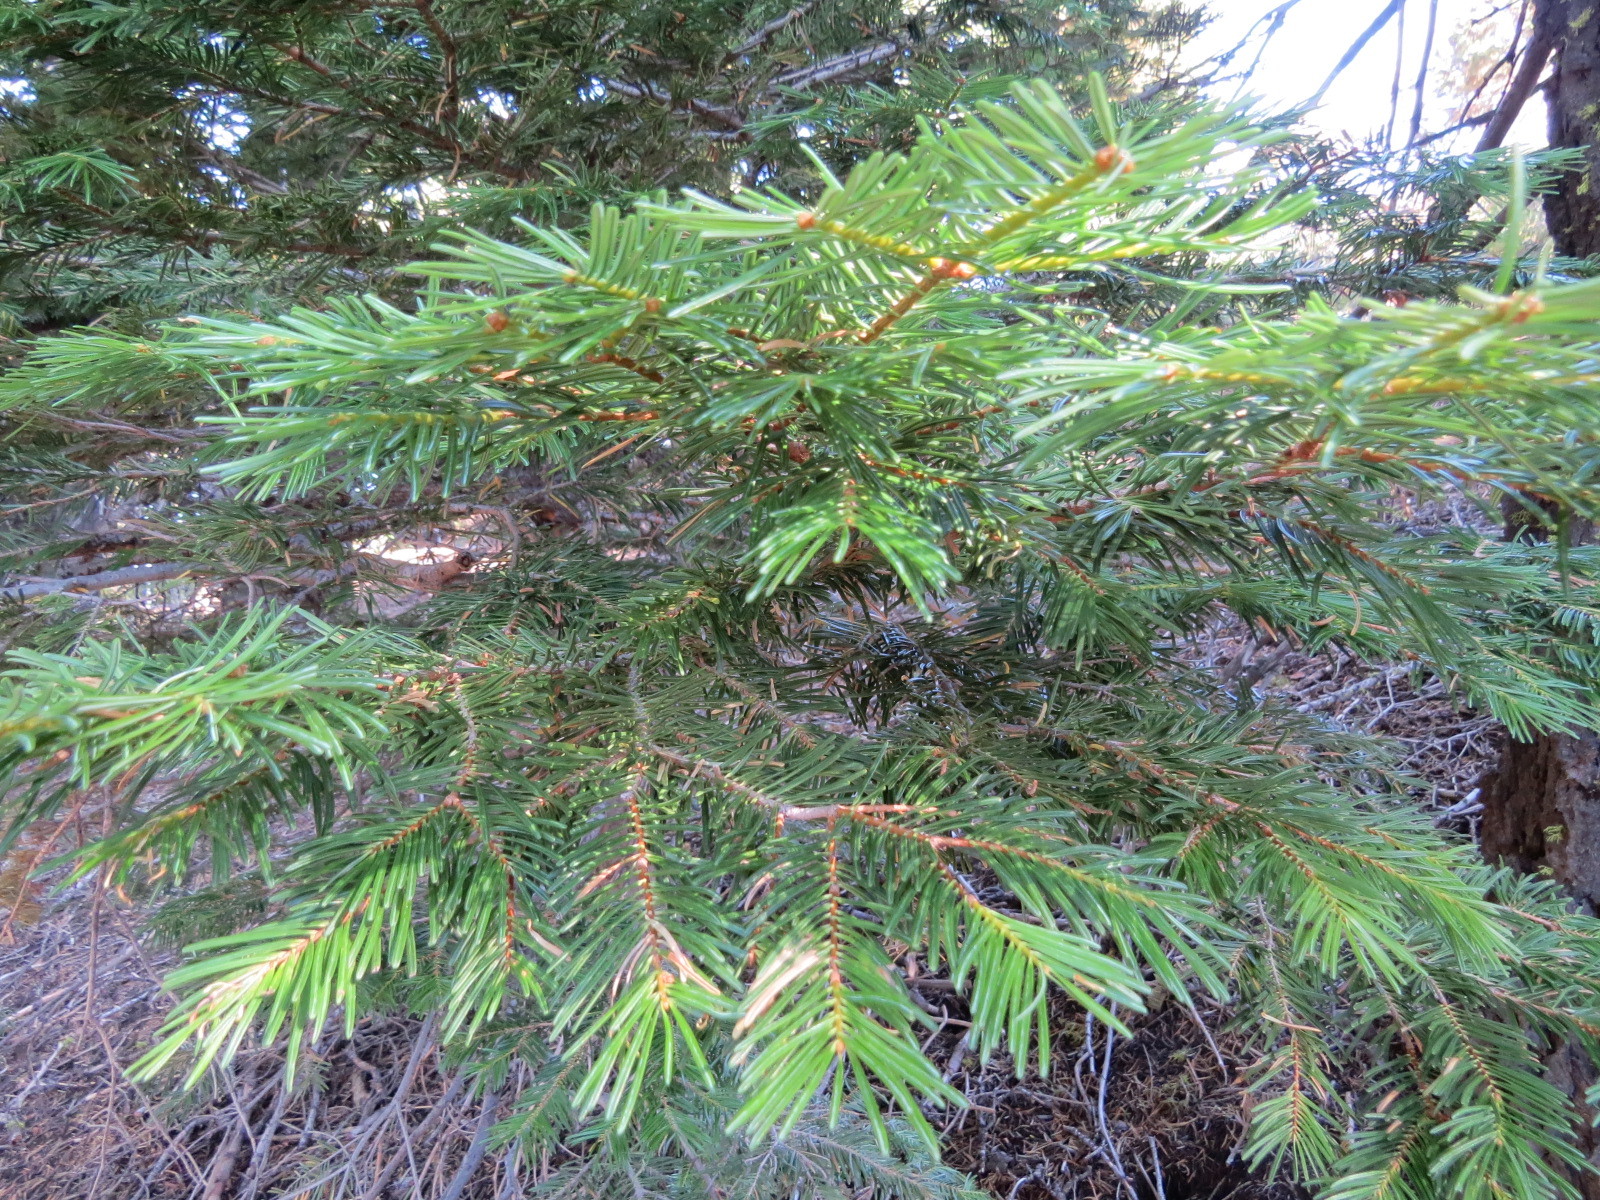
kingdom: Plantae
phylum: Tracheophyta
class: Pinopsida
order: Pinales
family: Pinaceae
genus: Abies
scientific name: Abies concolor
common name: Colorado fir
